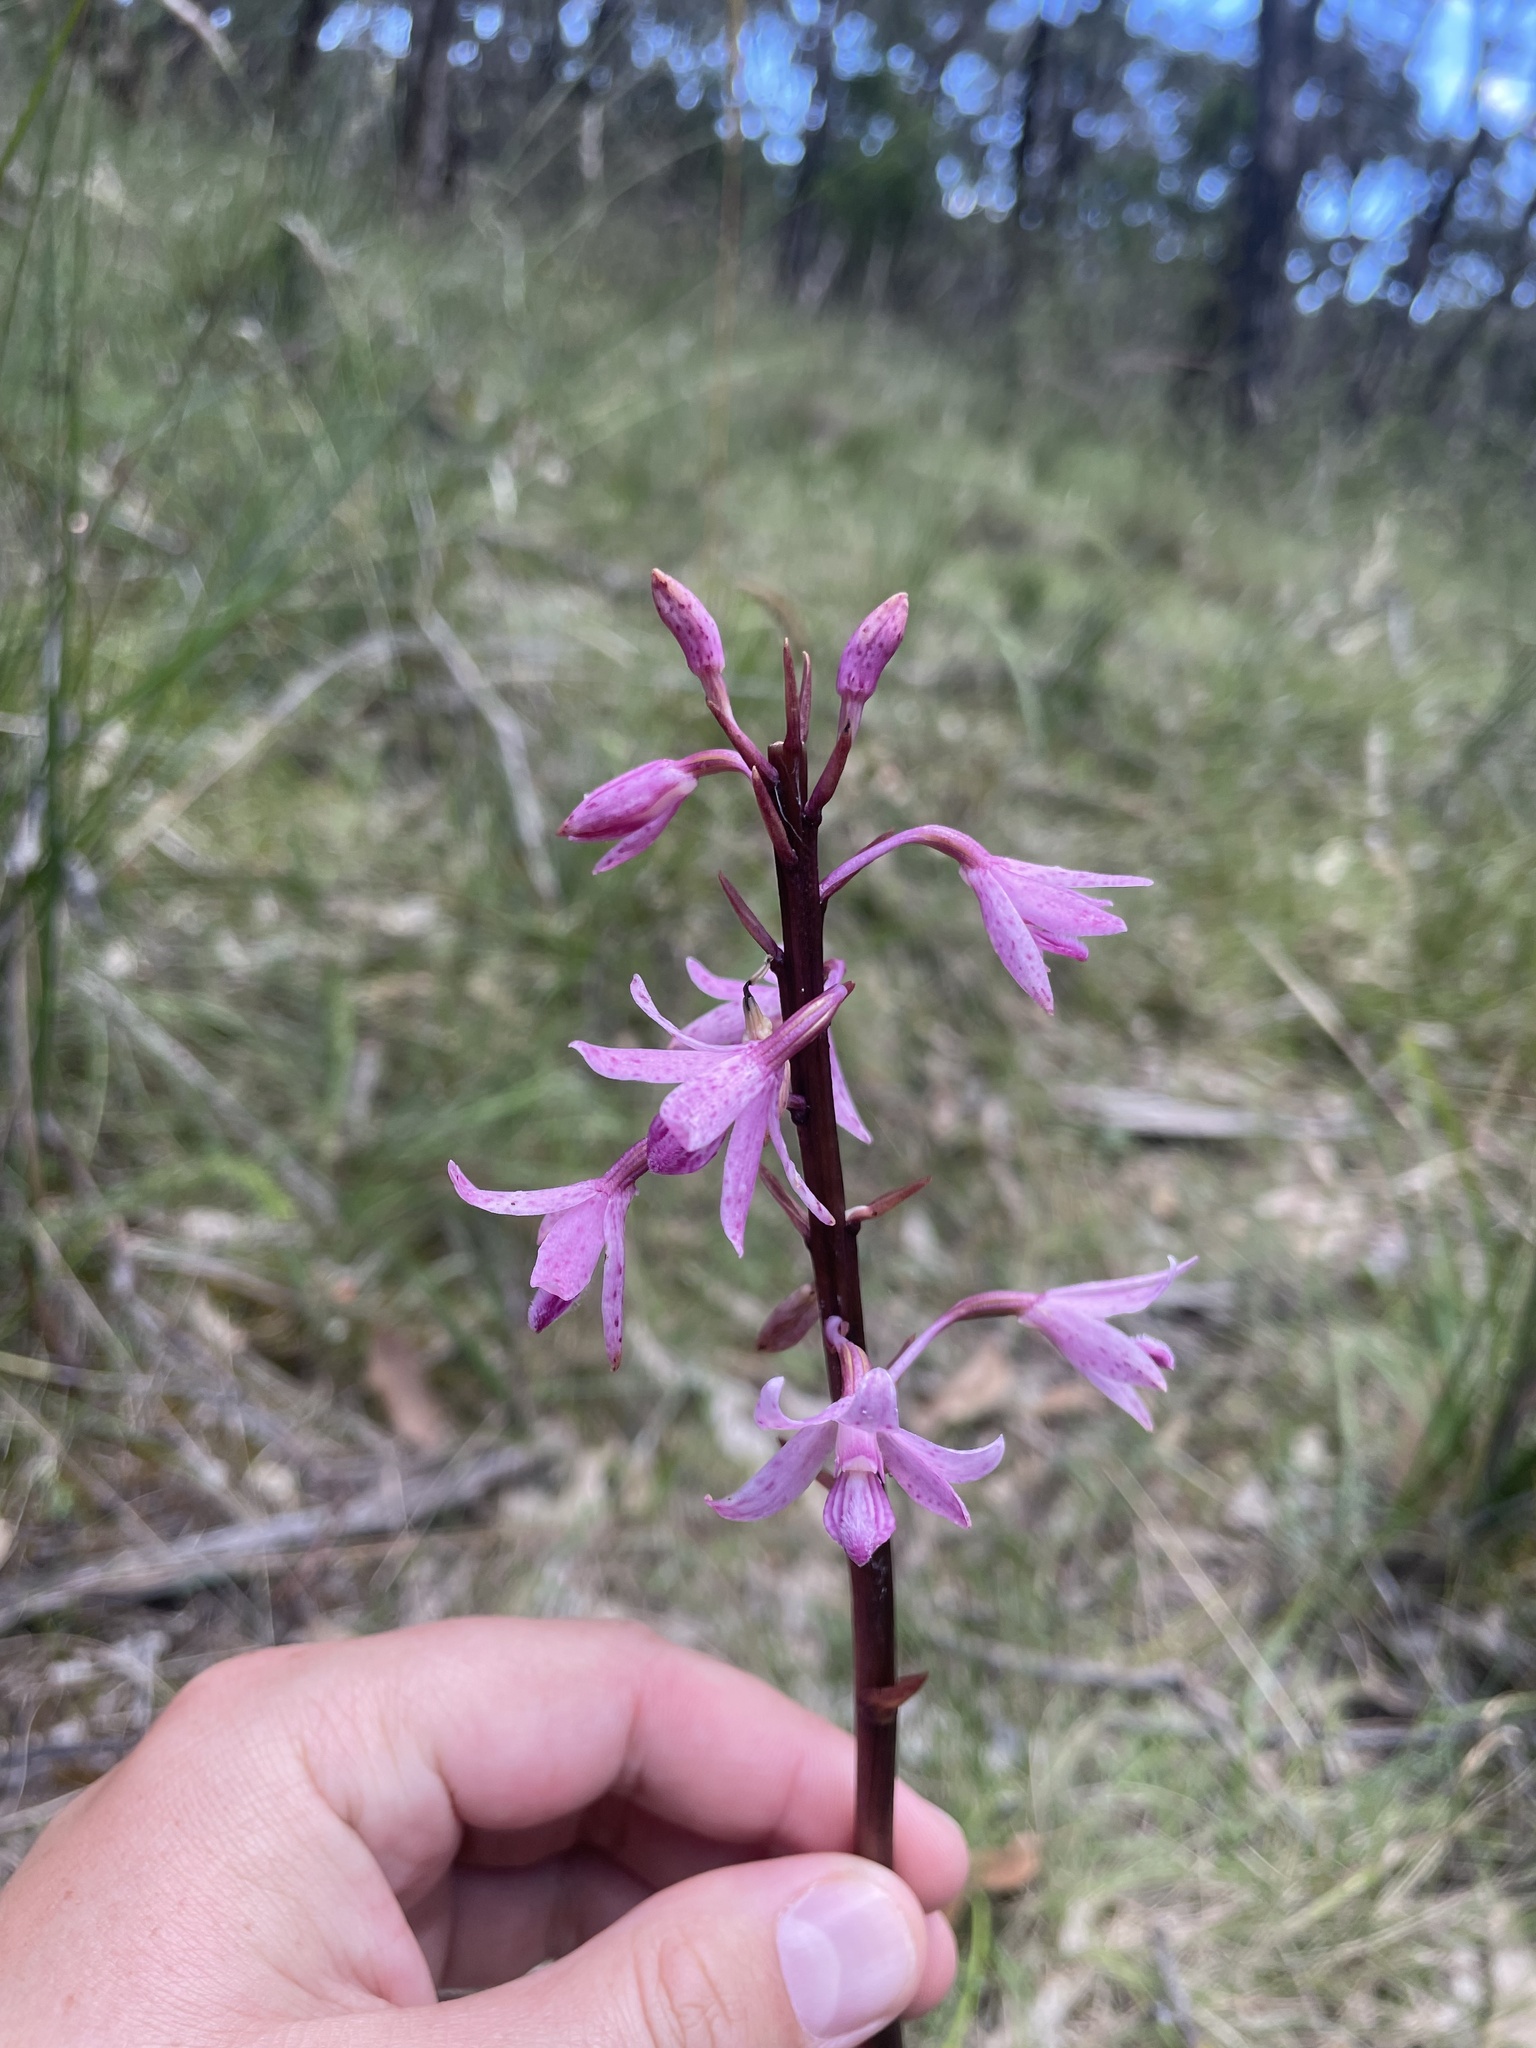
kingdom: Plantae
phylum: Tracheophyta
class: Liliopsida
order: Asparagales
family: Orchidaceae
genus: Dipodium
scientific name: Dipodium roseum
